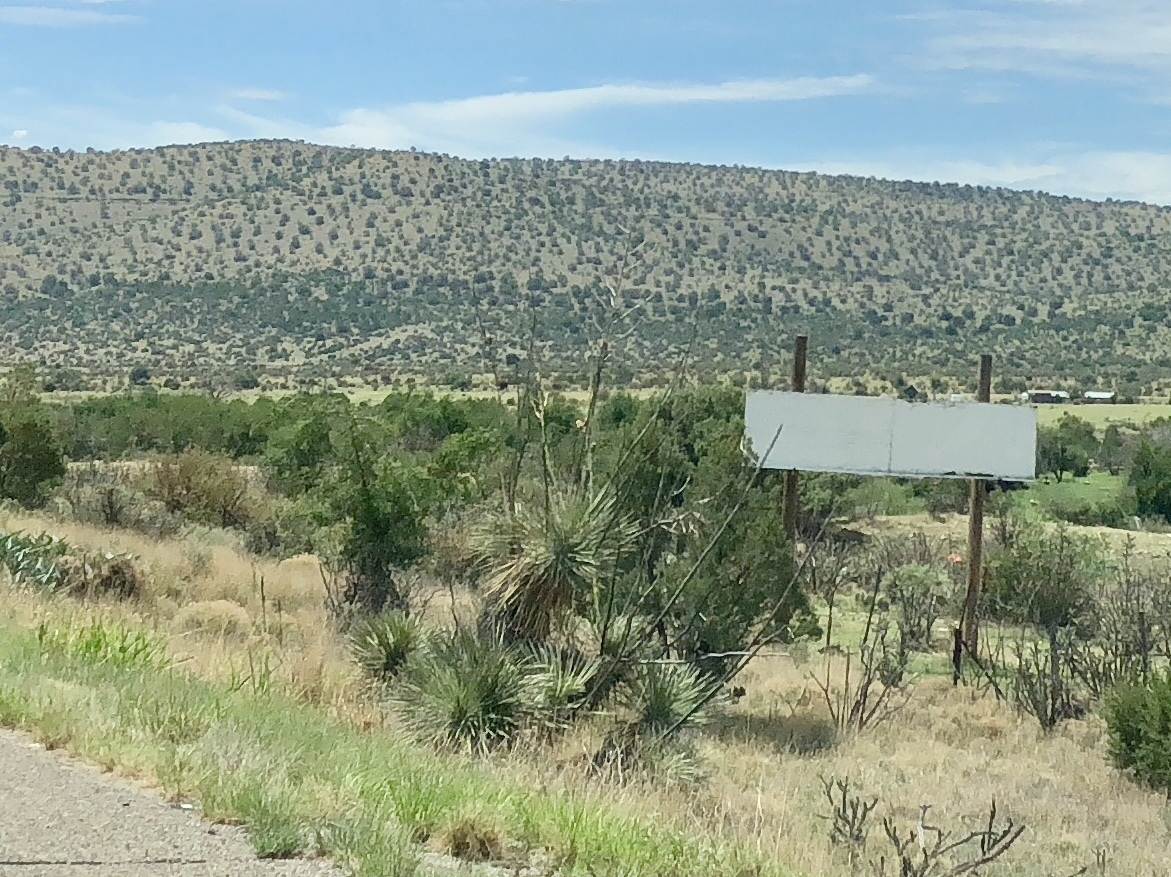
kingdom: Plantae
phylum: Tracheophyta
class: Liliopsida
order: Asparagales
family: Asparagaceae
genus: Yucca
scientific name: Yucca elata
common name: Palmella
